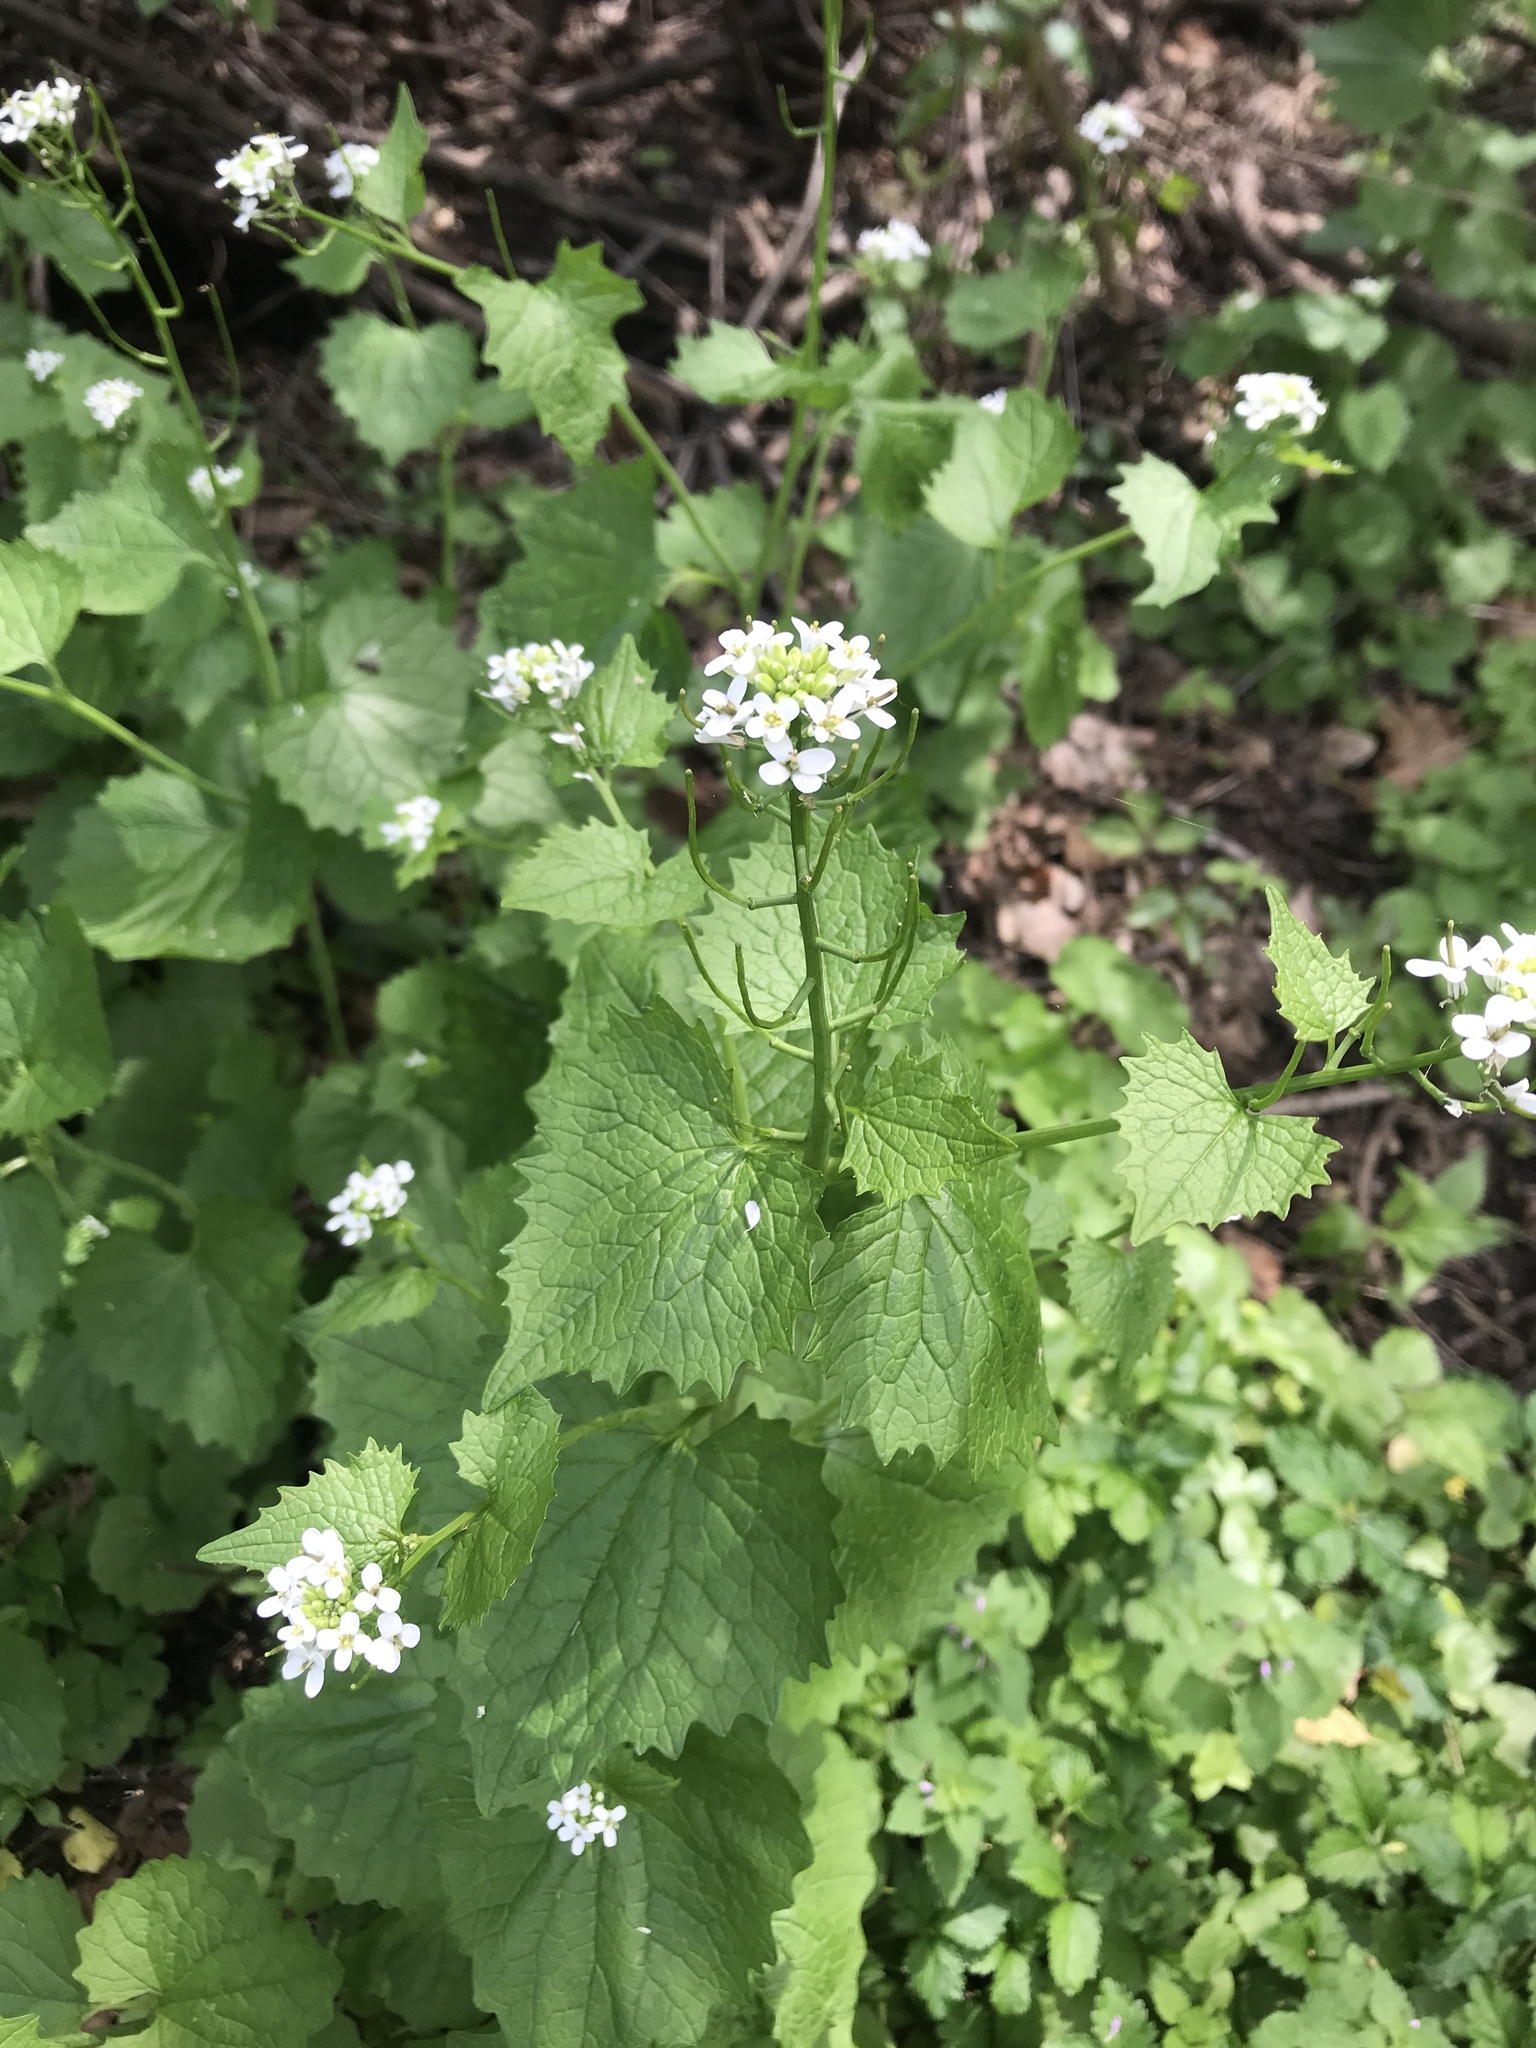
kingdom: Plantae
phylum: Tracheophyta
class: Magnoliopsida
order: Brassicales
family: Brassicaceae
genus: Alliaria
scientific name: Alliaria petiolata
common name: Garlic mustard
